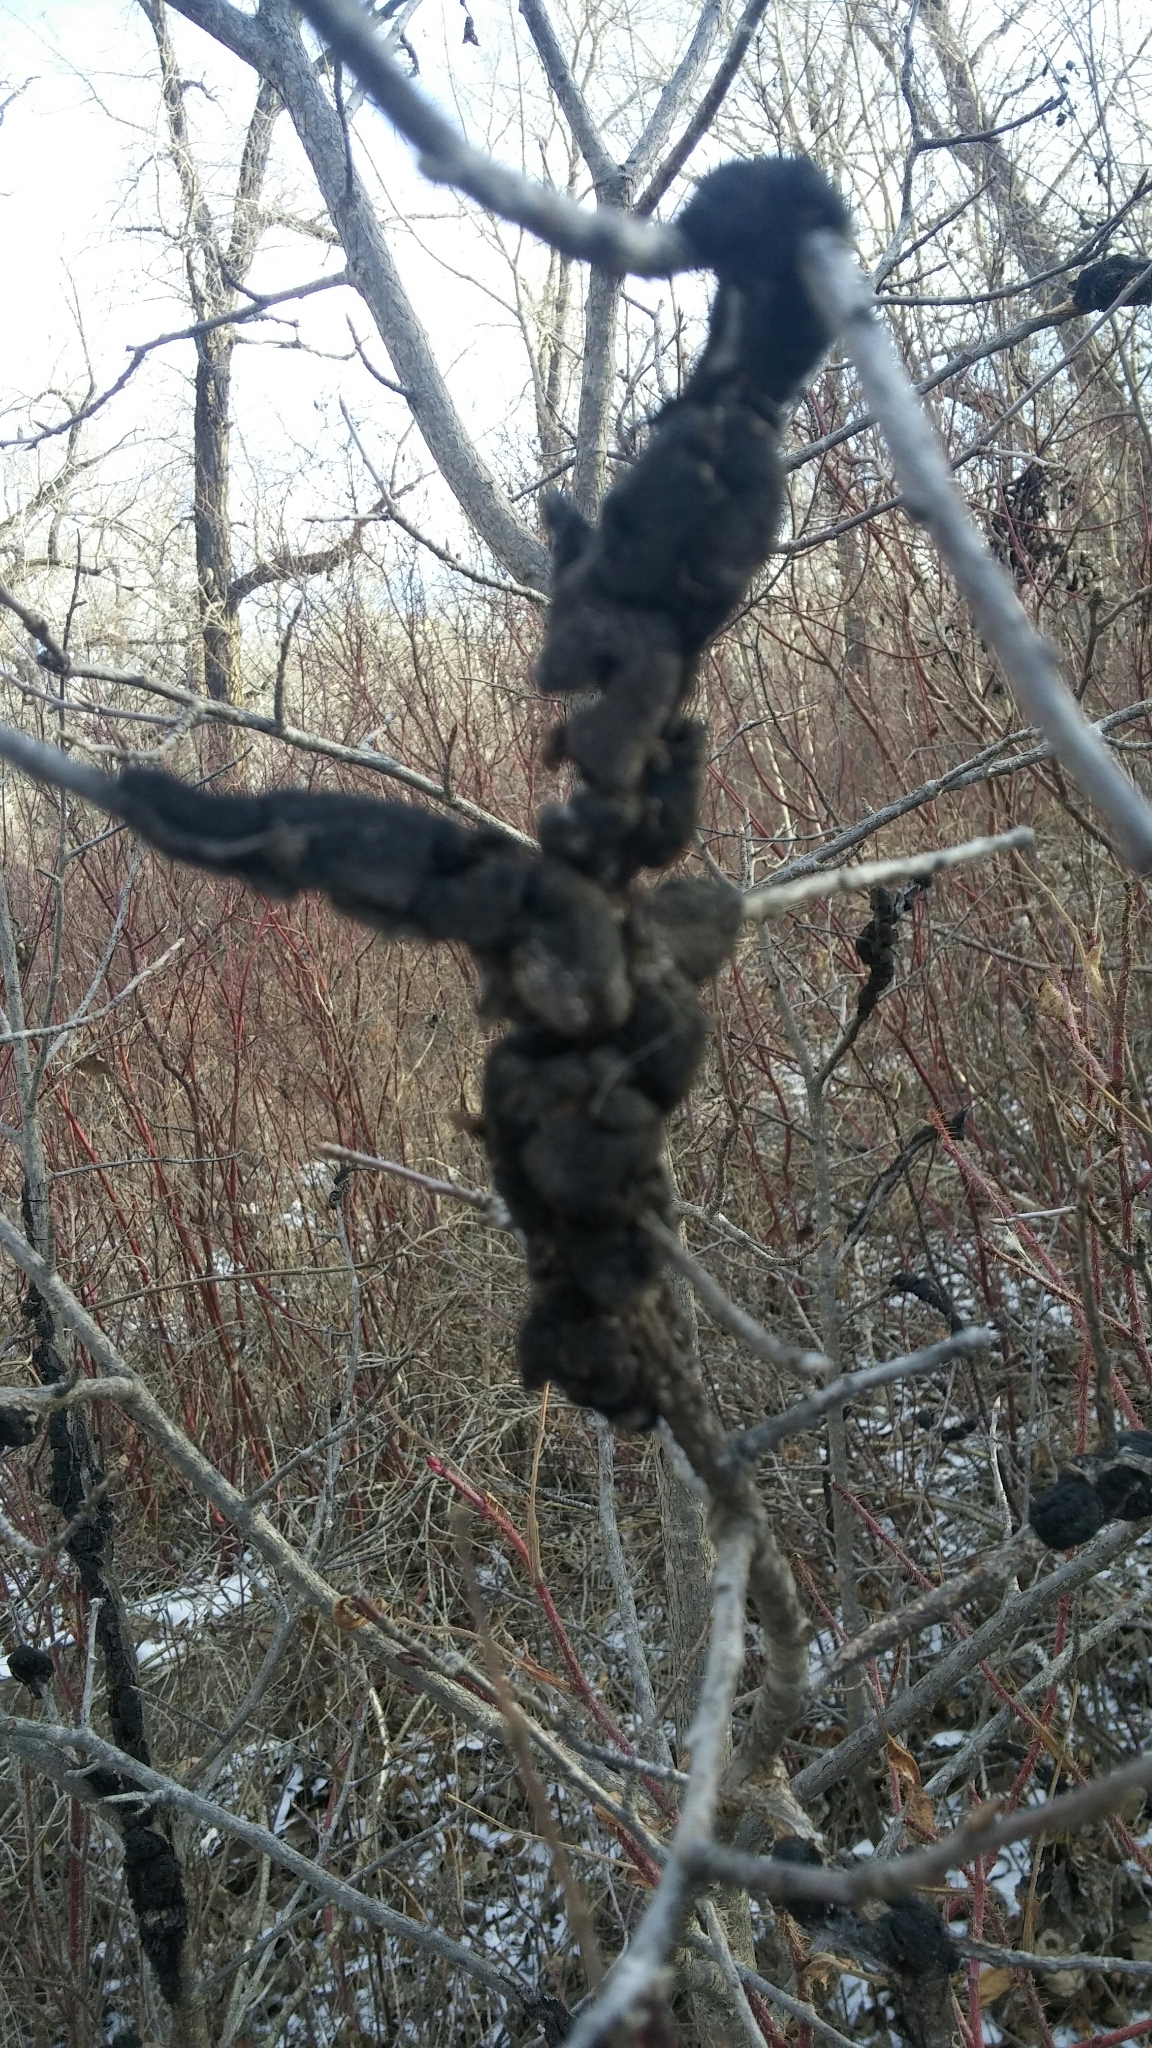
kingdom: Fungi
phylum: Ascomycota
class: Dothideomycetes
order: Venturiales
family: Venturiaceae
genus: Apiosporina
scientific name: Apiosporina morbosa
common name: Black knot
